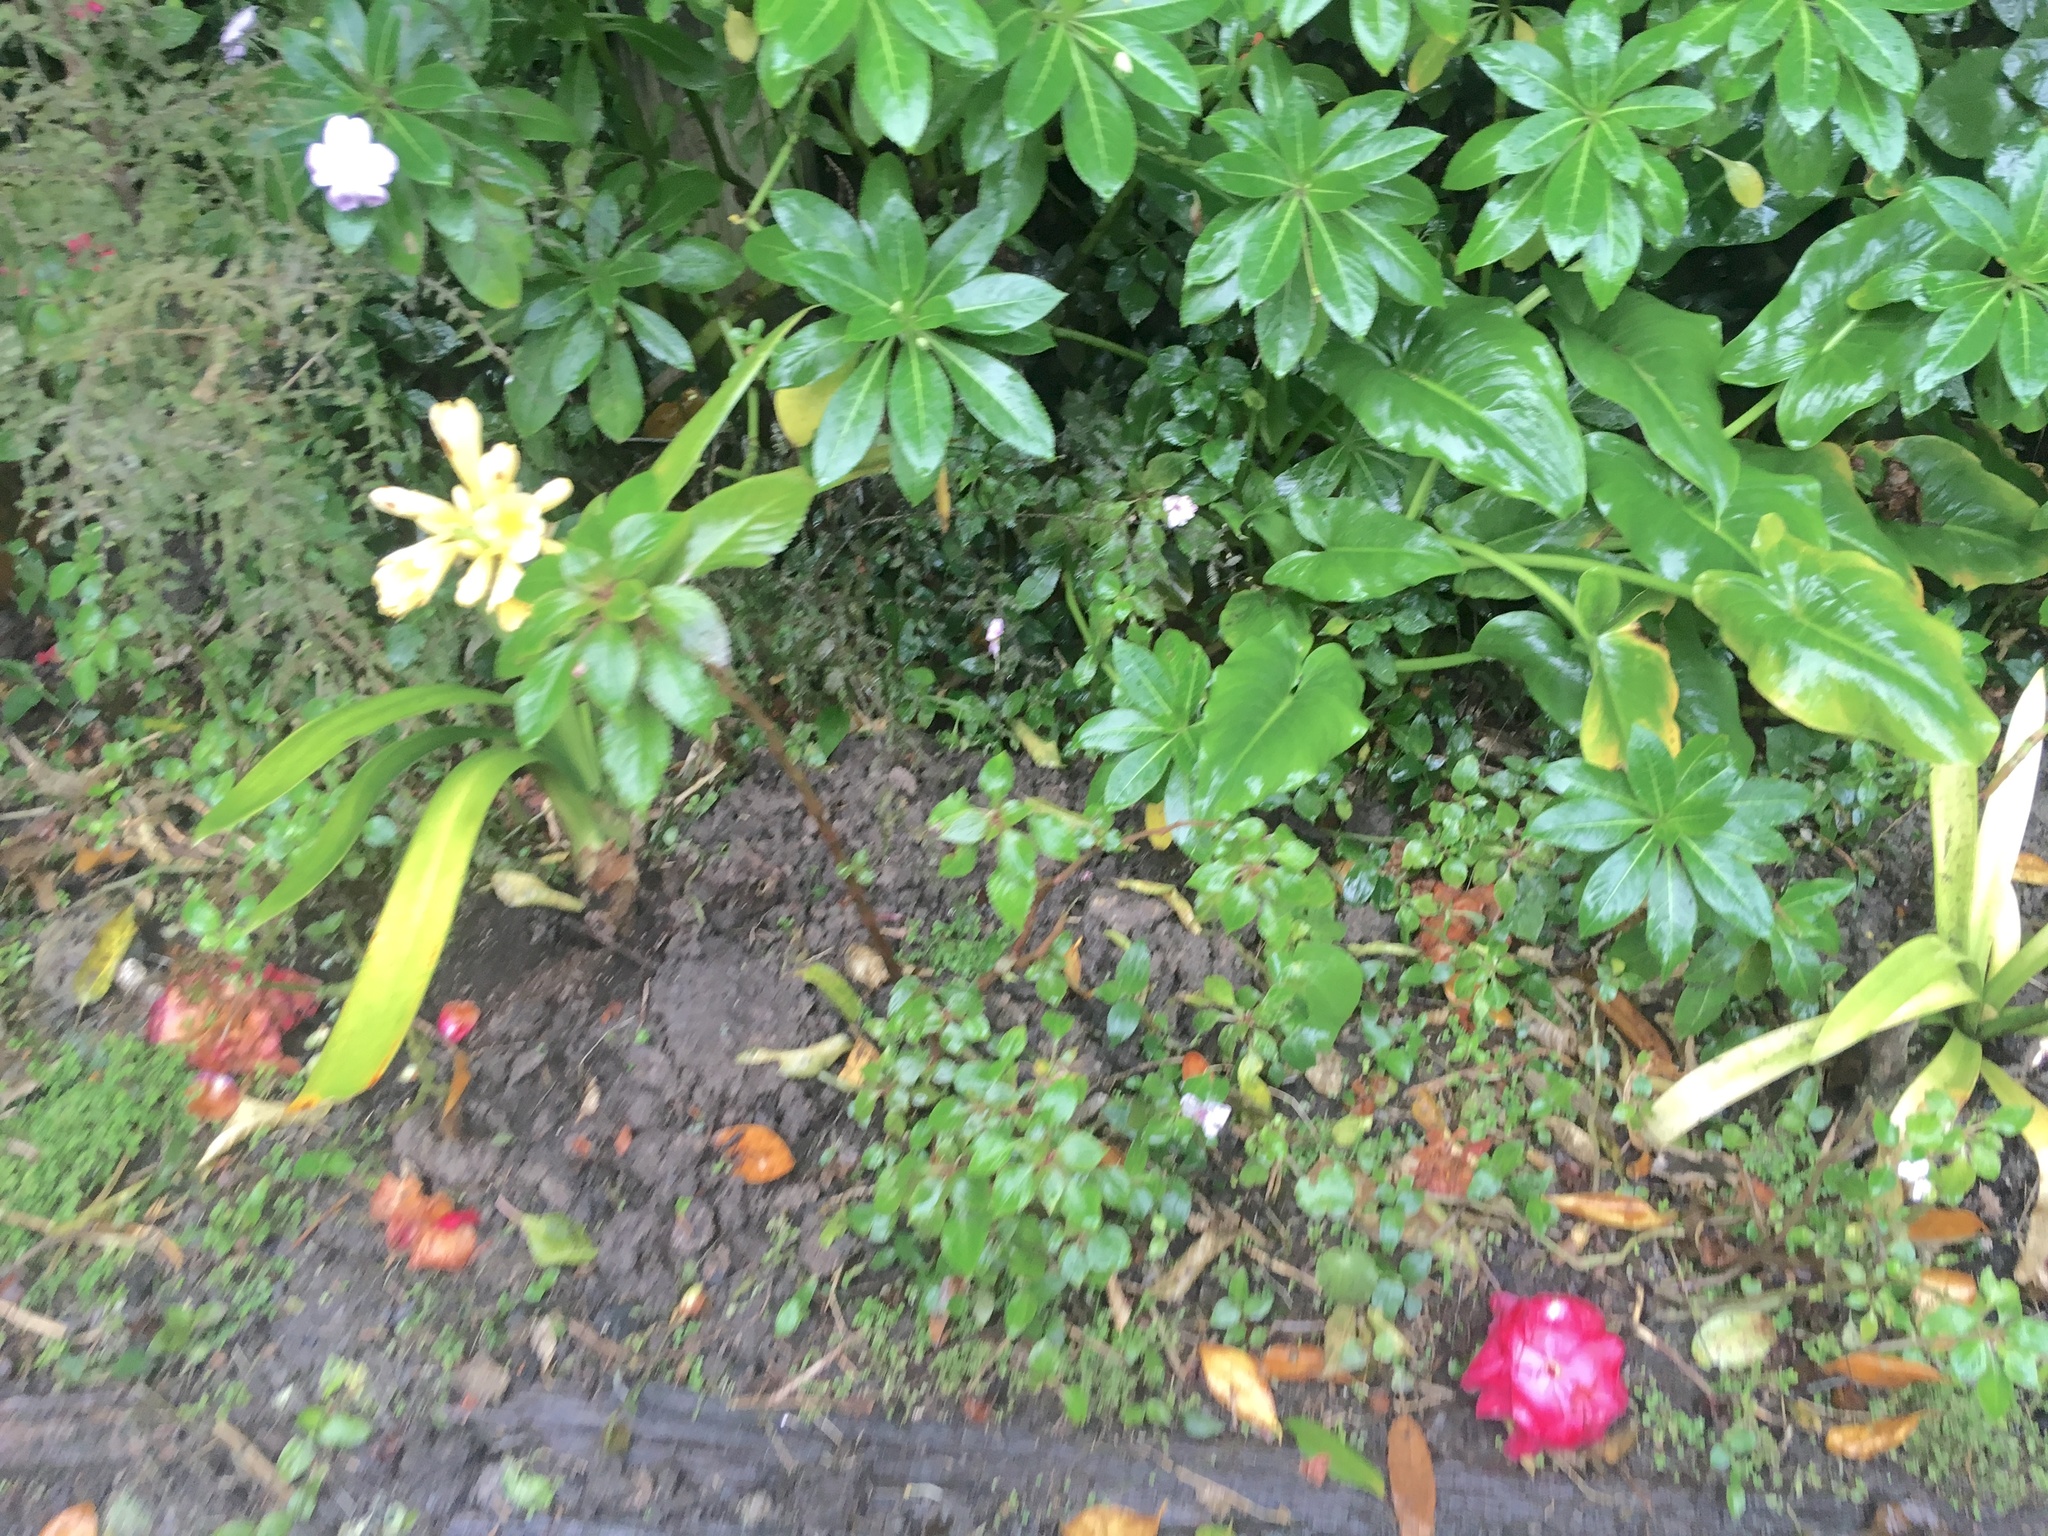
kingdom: Plantae
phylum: Tracheophyta
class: Magnoliopsida
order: Ericales
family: Balsaminaceae
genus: Impatiens
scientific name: Impatiens sodenii
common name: Oliver's touch-me-not
